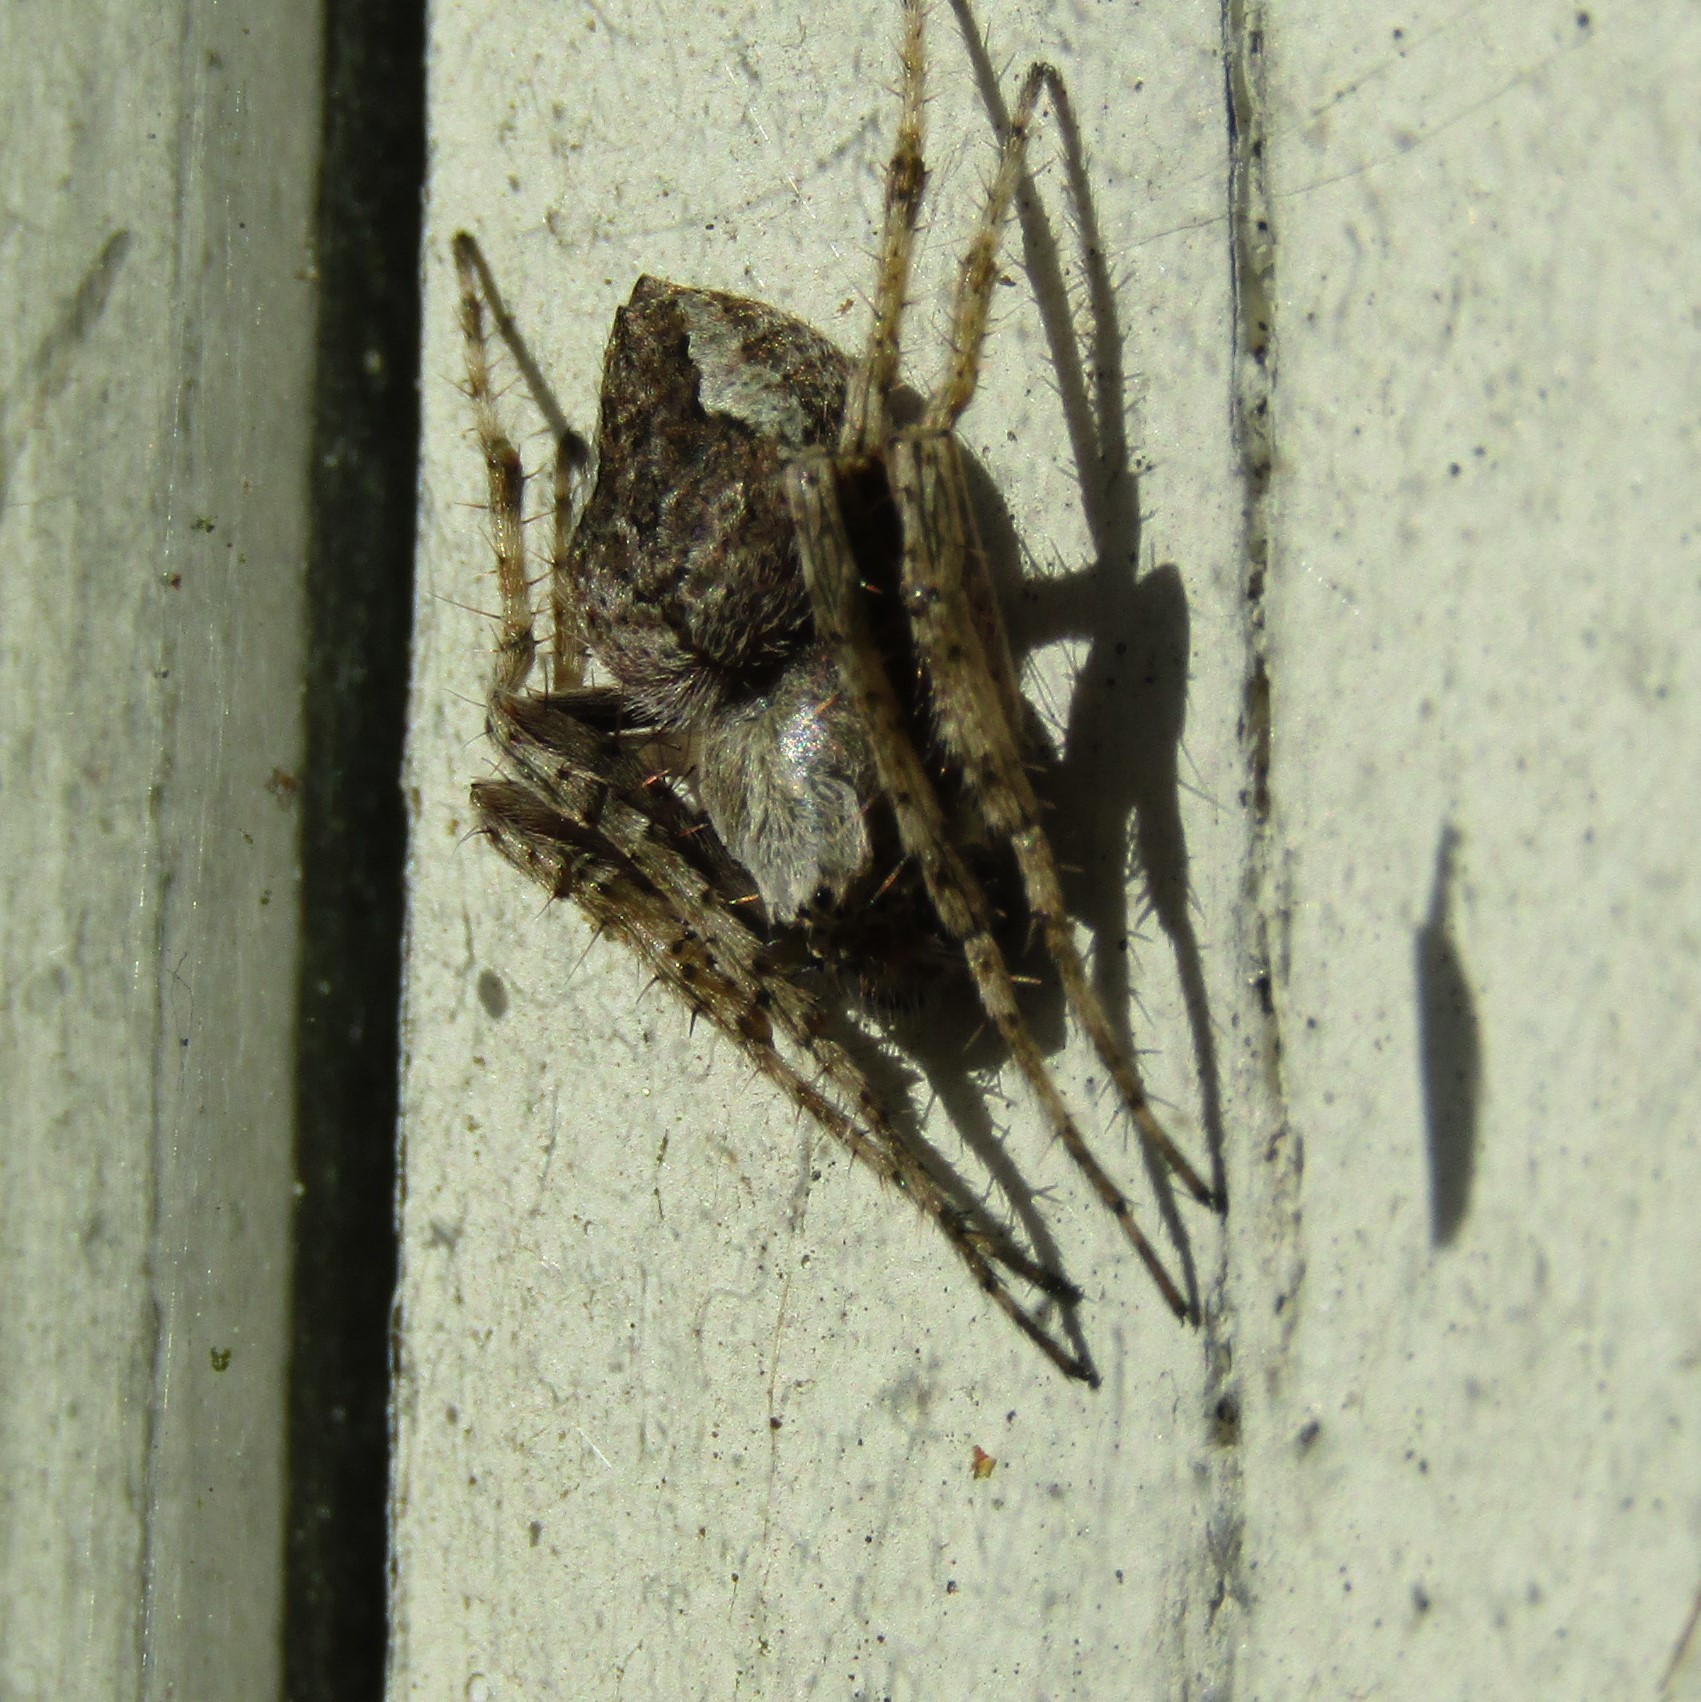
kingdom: Animalia
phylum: Arthropoda
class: Arachnida
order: Araneae
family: Araneidae
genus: Eriophora
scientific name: Eriophora pustulosa
